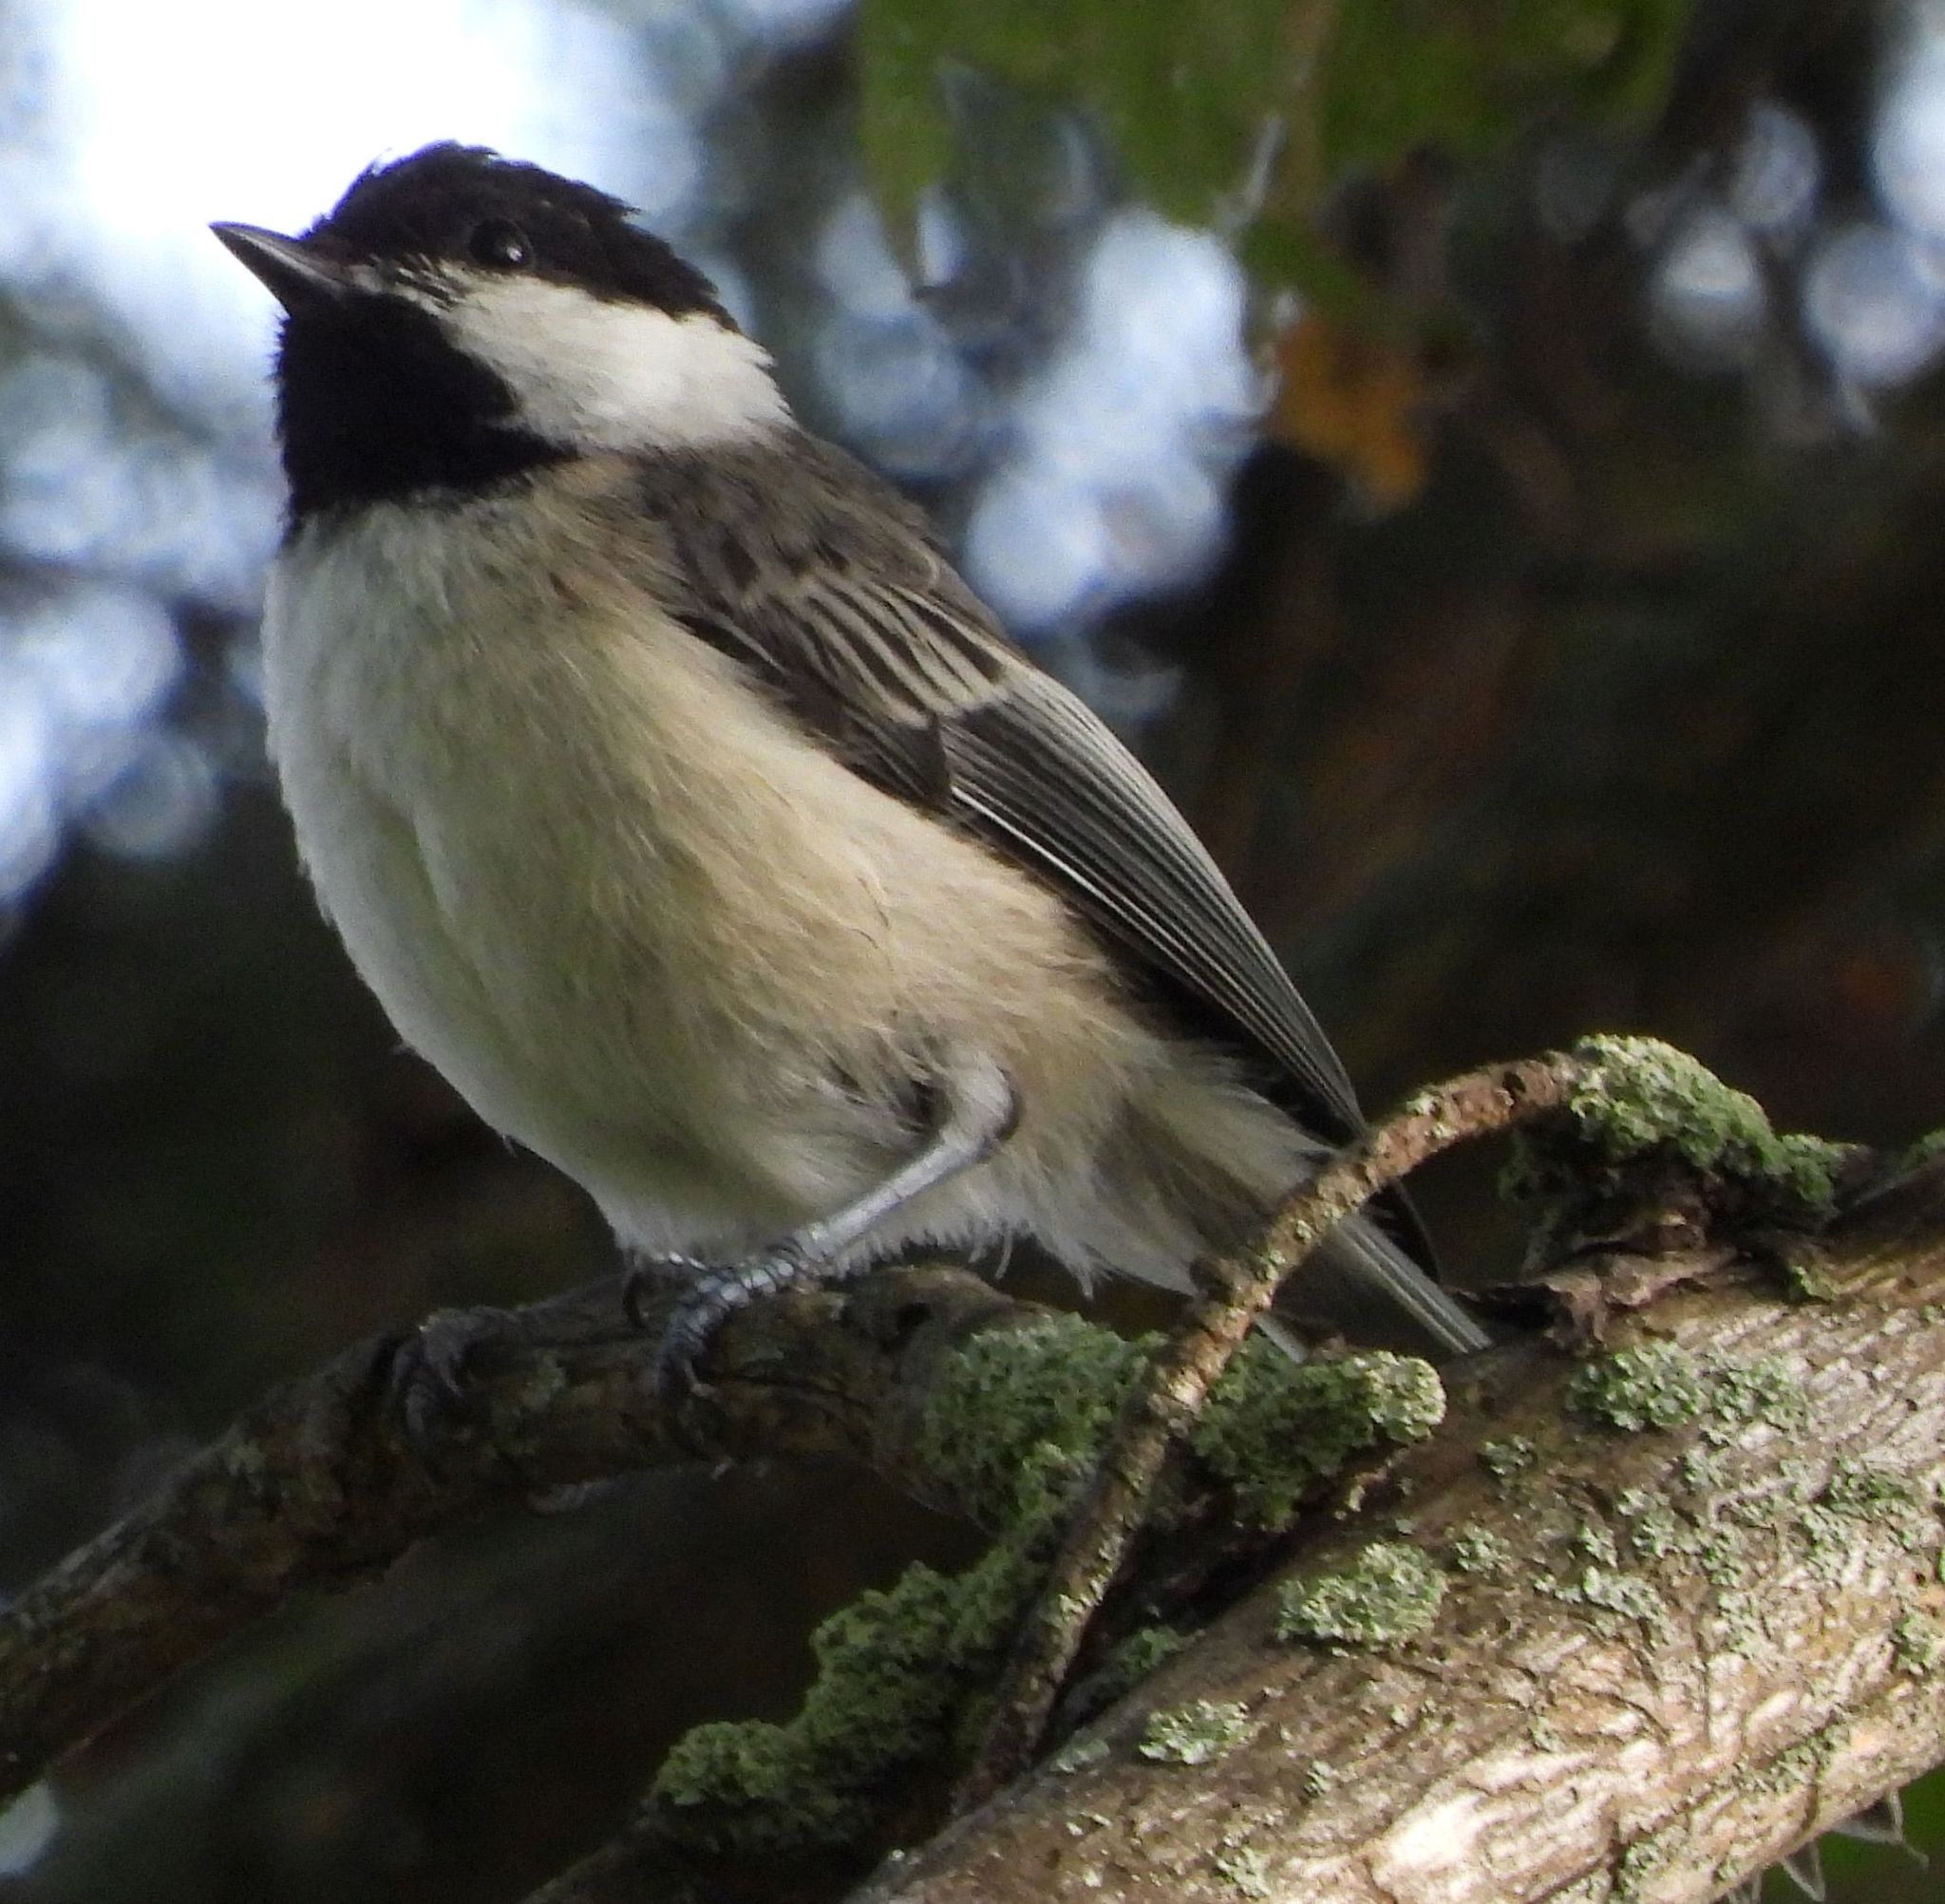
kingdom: Animalia
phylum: Chordata
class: Aves
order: Passeriformes
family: Paridae
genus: Poecile
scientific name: Poecile atricapillus
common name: Black-capped chickadee
